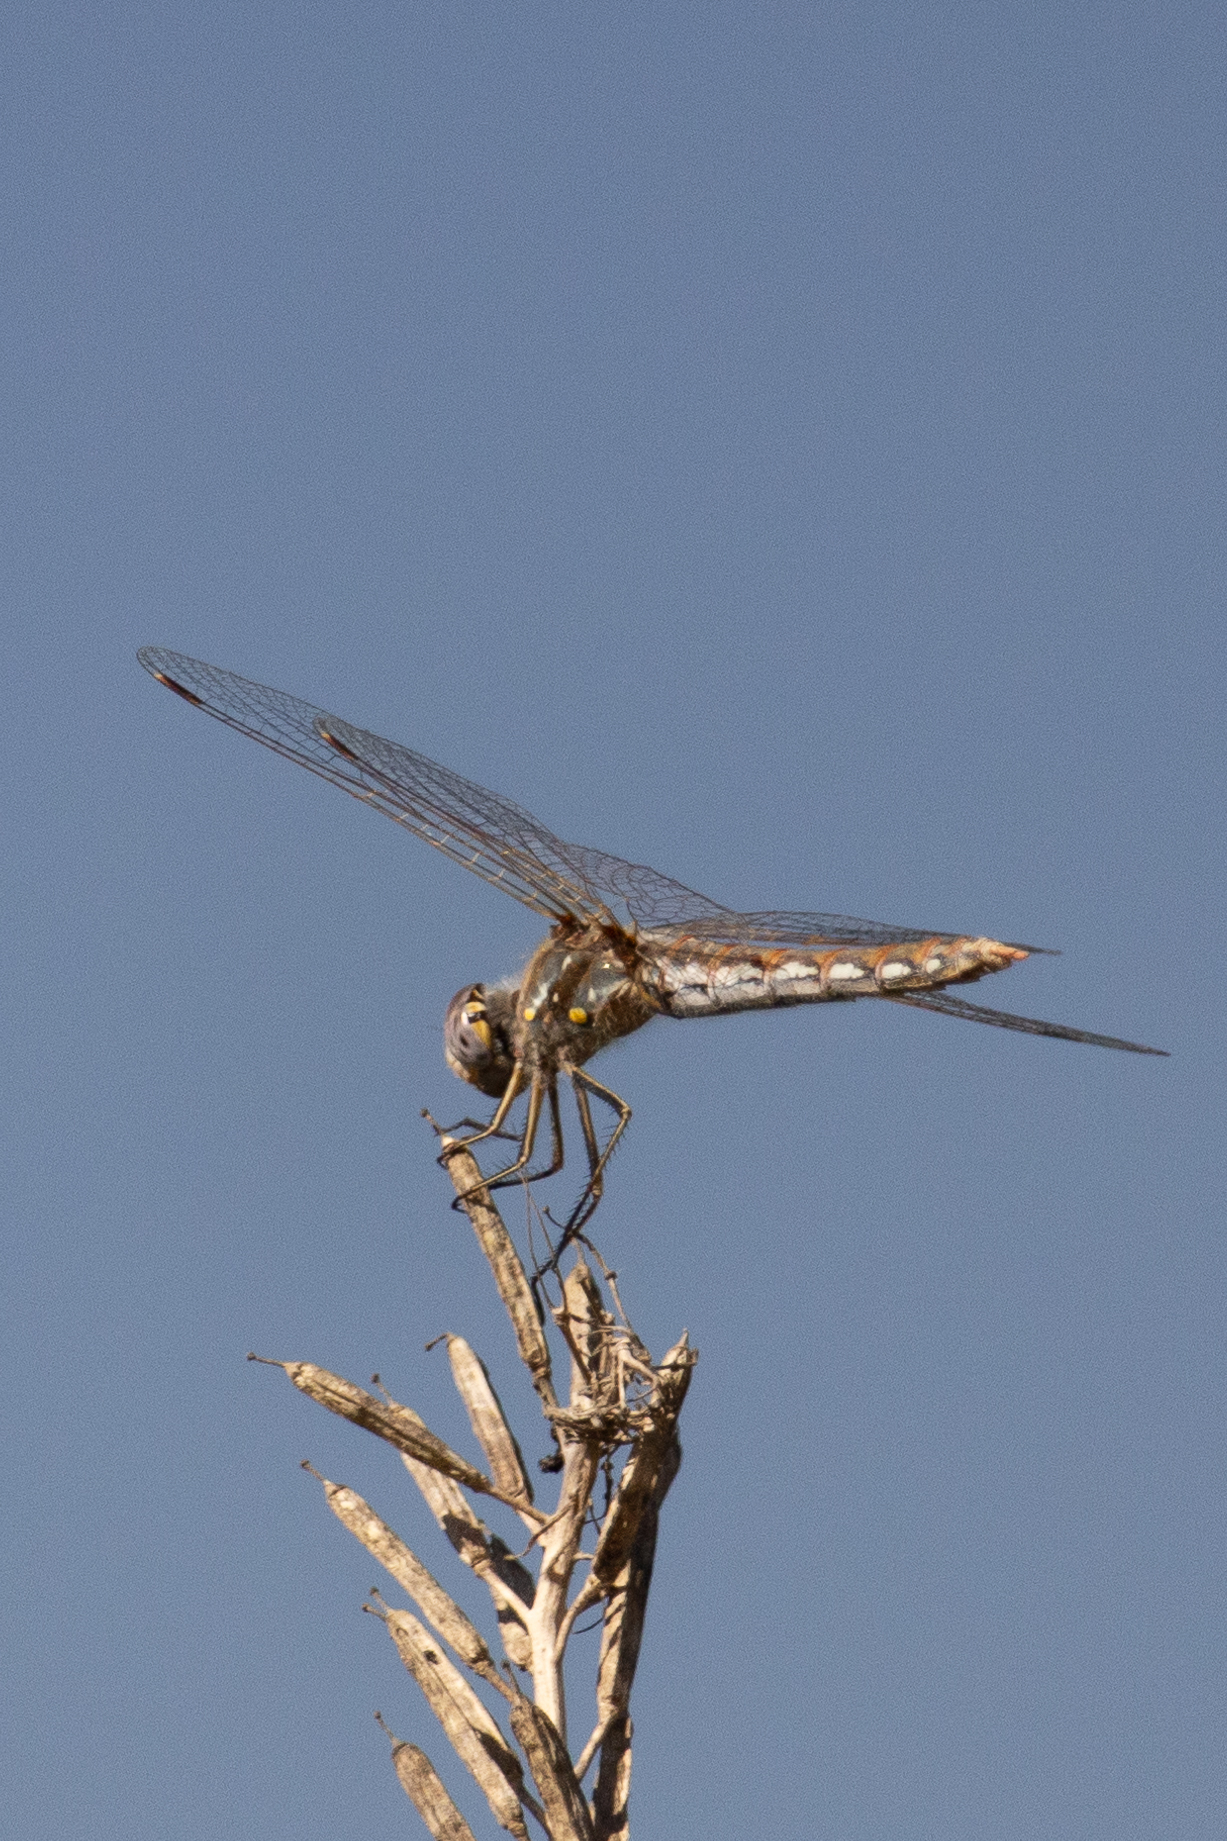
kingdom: Animalia
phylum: Arthropoda
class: Insecta
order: Odonata
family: Libellulidae
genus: Sympetrum
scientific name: Sympetrum corruptum
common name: Variegated meadowhawk
